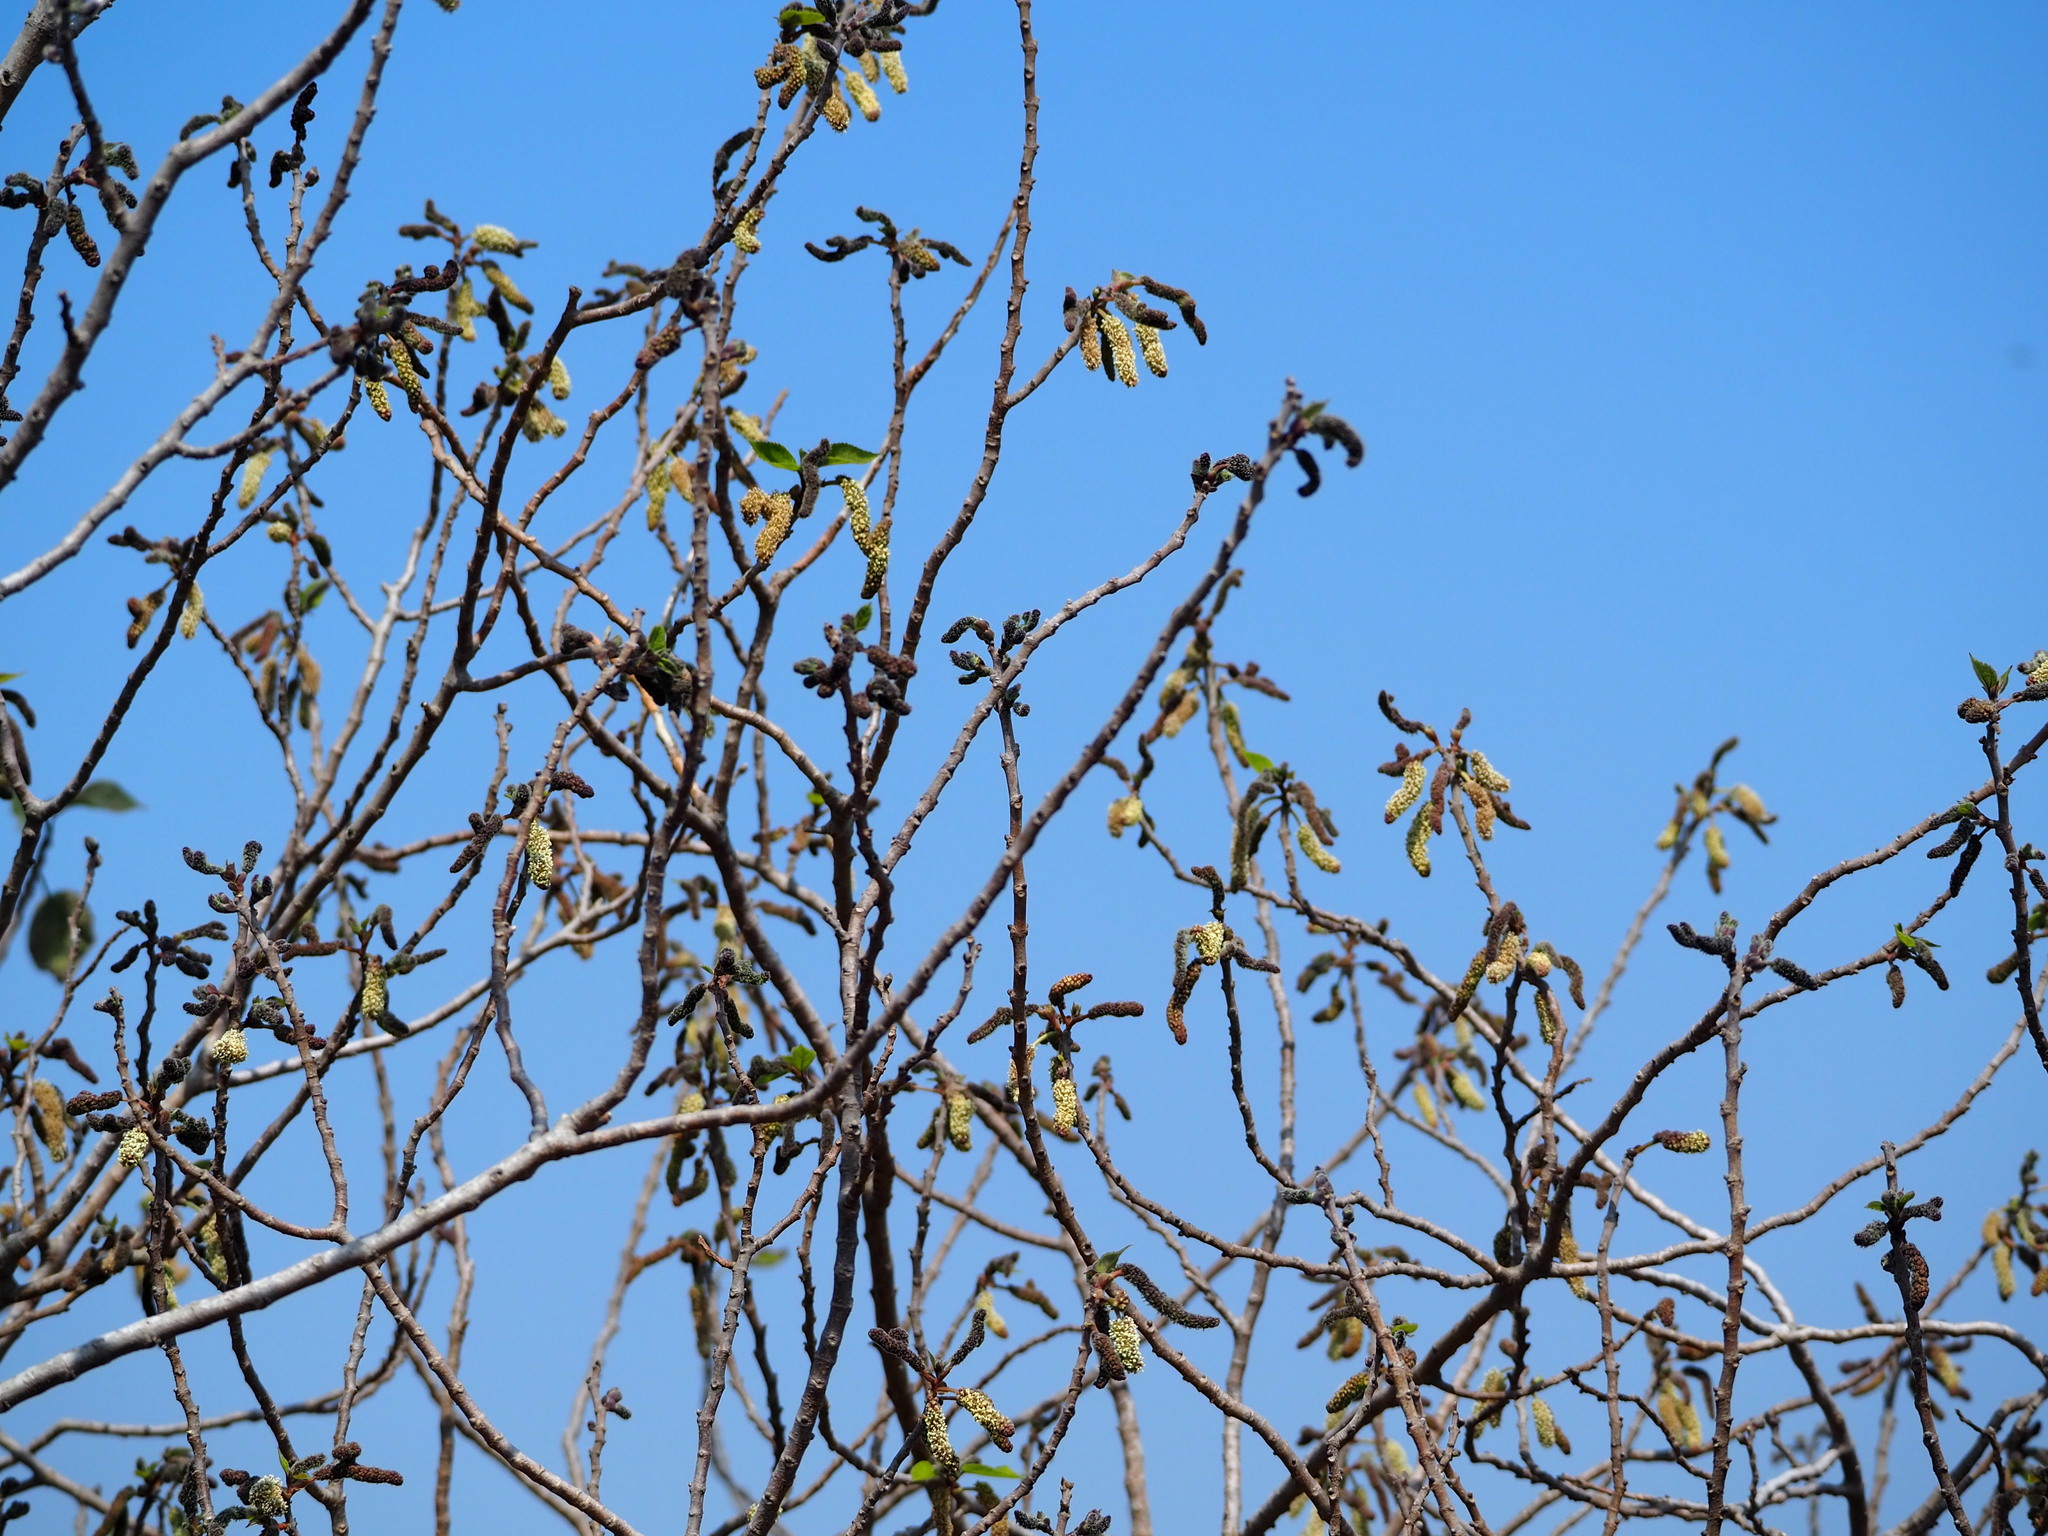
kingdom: Plantae
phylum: Tracheophyta
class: Magnoliopsida
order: Rosales
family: Moraceae
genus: Broussonetia
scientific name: Broussonetia papyrifera
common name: Paper mulberry
